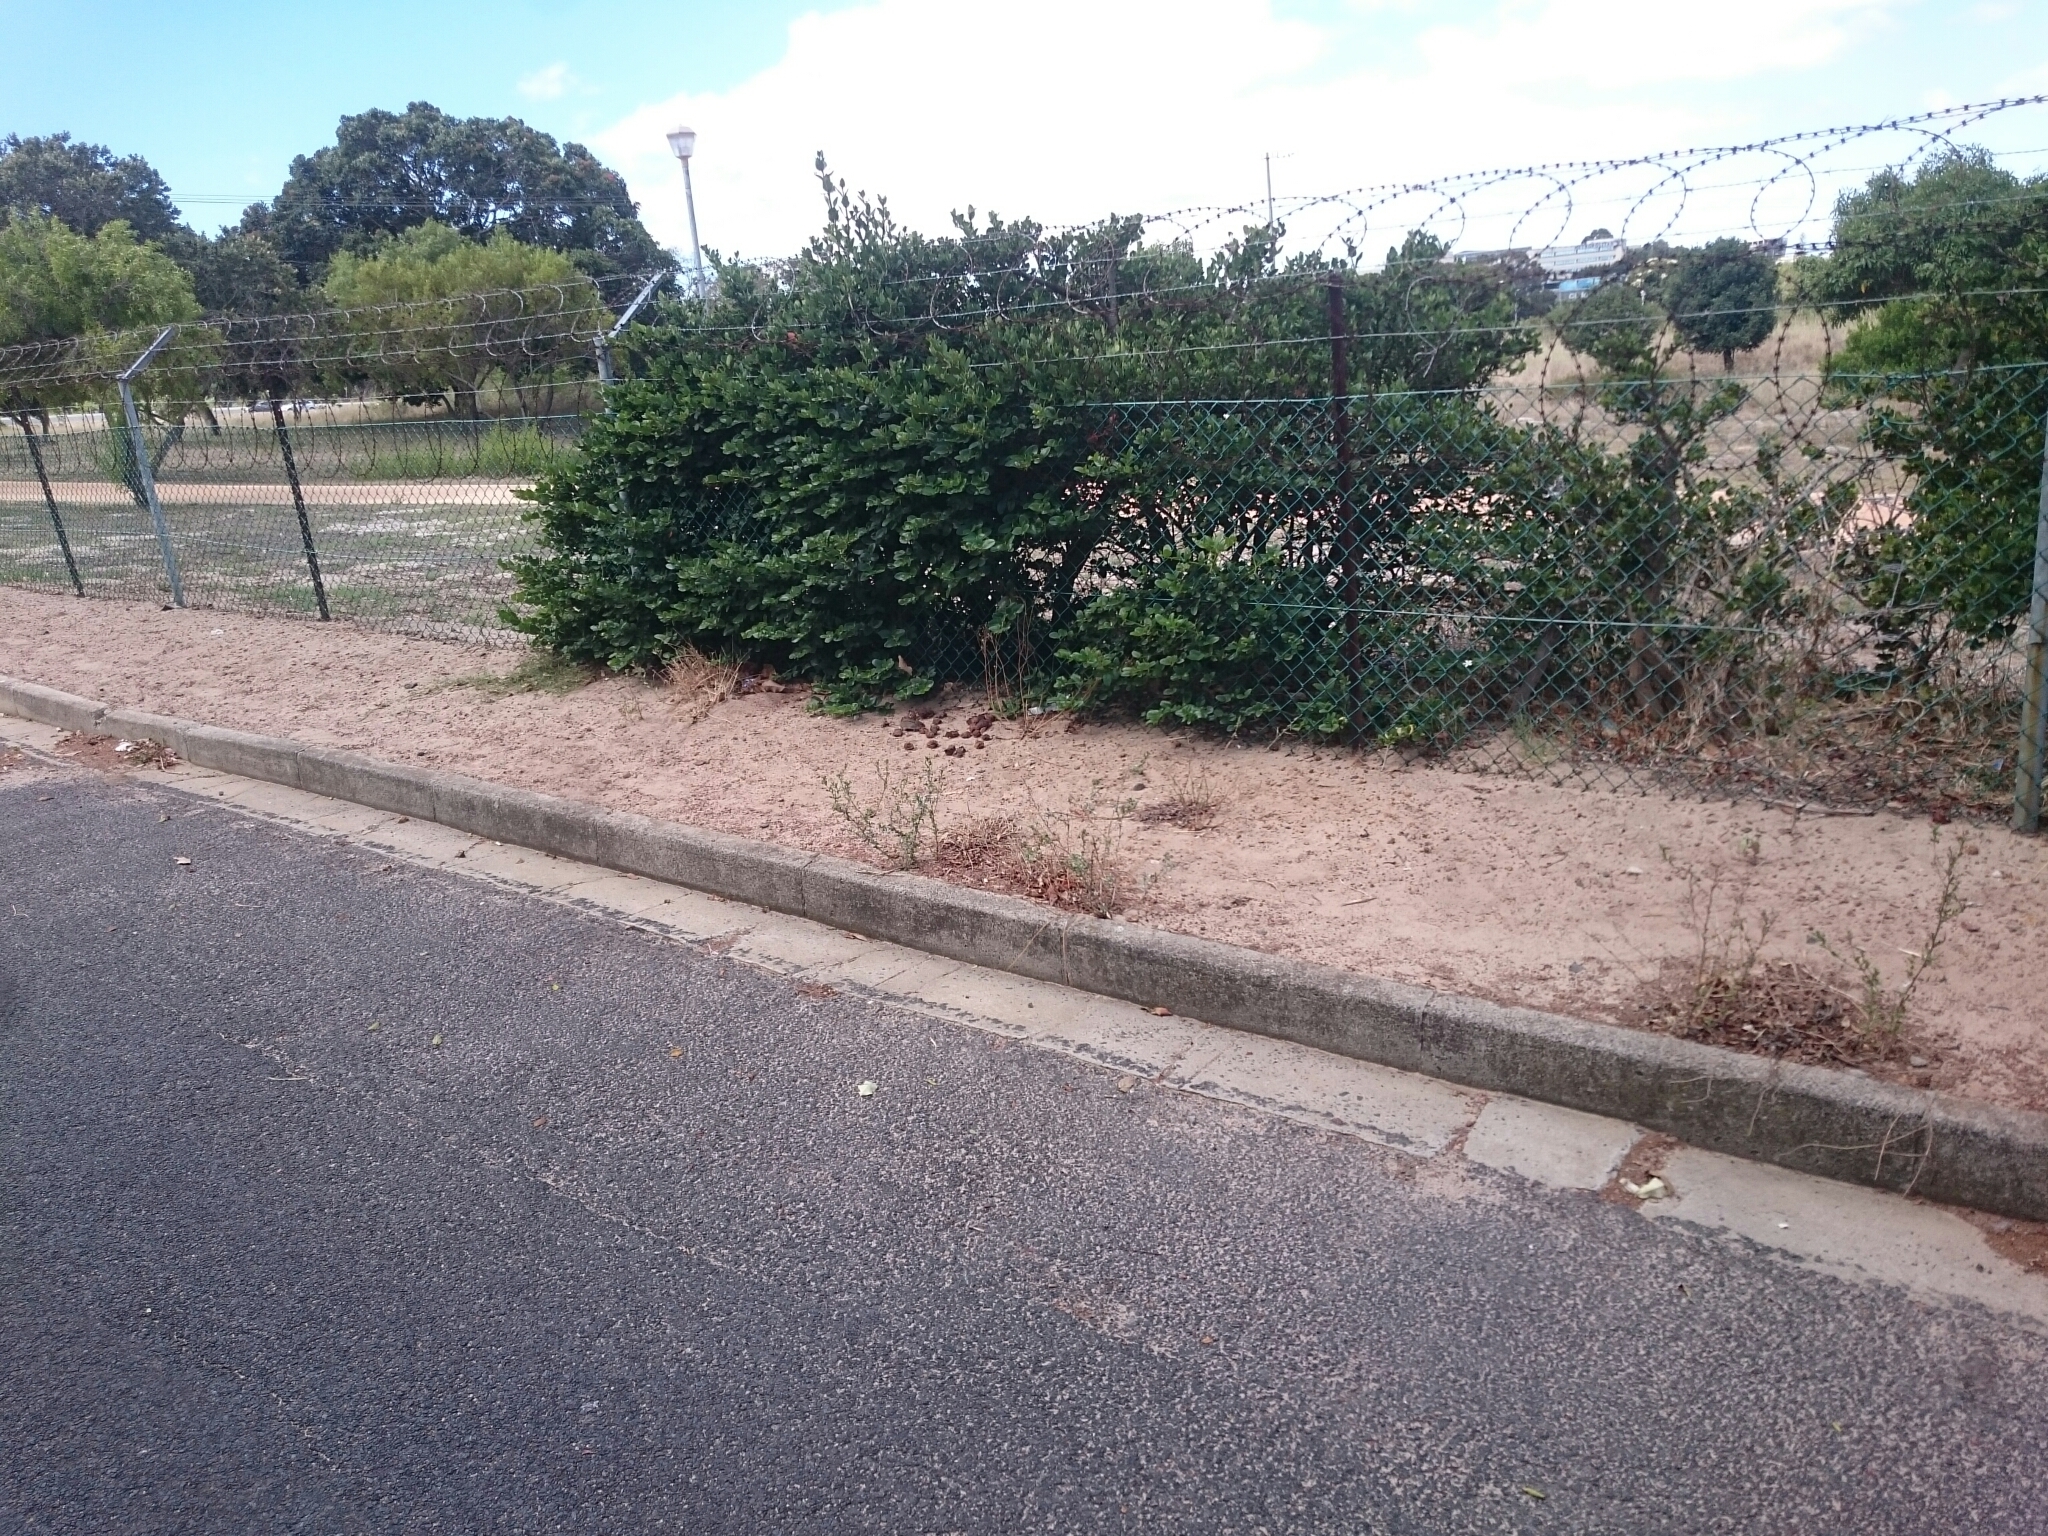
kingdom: Animalia
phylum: Chordata
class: Mammalia
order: Rodentia
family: Muridae
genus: Rhabdomys
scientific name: Rhabdomys pumilio
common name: Xeric four-striped grass rat
